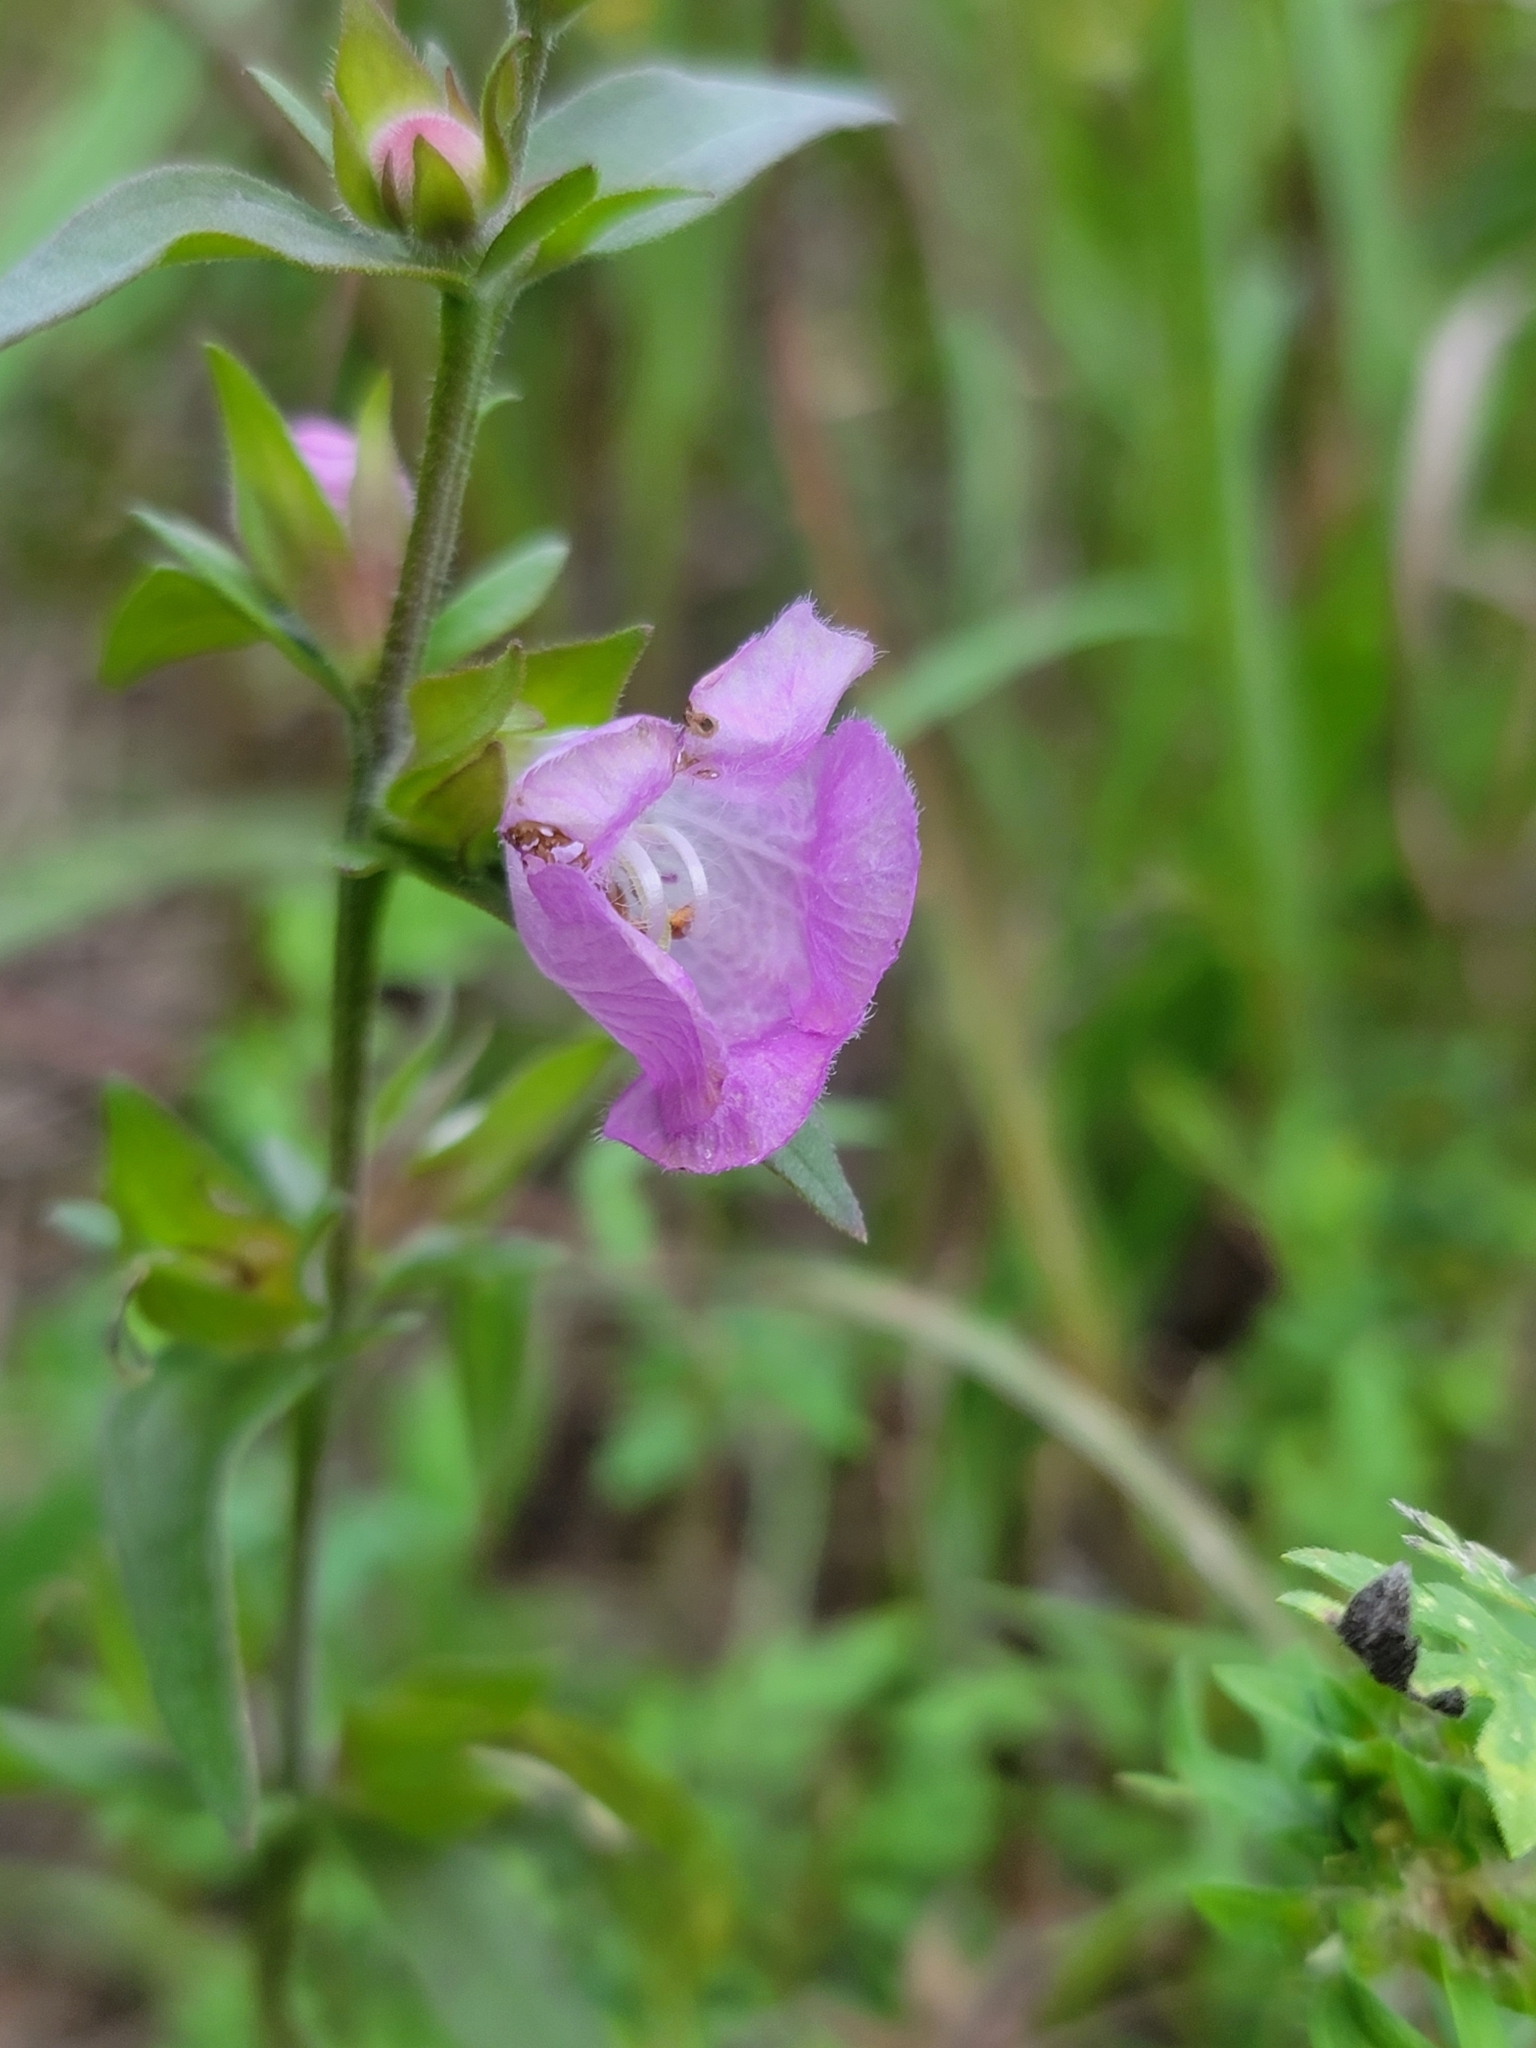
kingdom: Plantae
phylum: Tracheophyta
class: Magnoliopsida
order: Lamiales
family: Orobanchaceae
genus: Agalinis
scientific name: Agalinis auriculata
